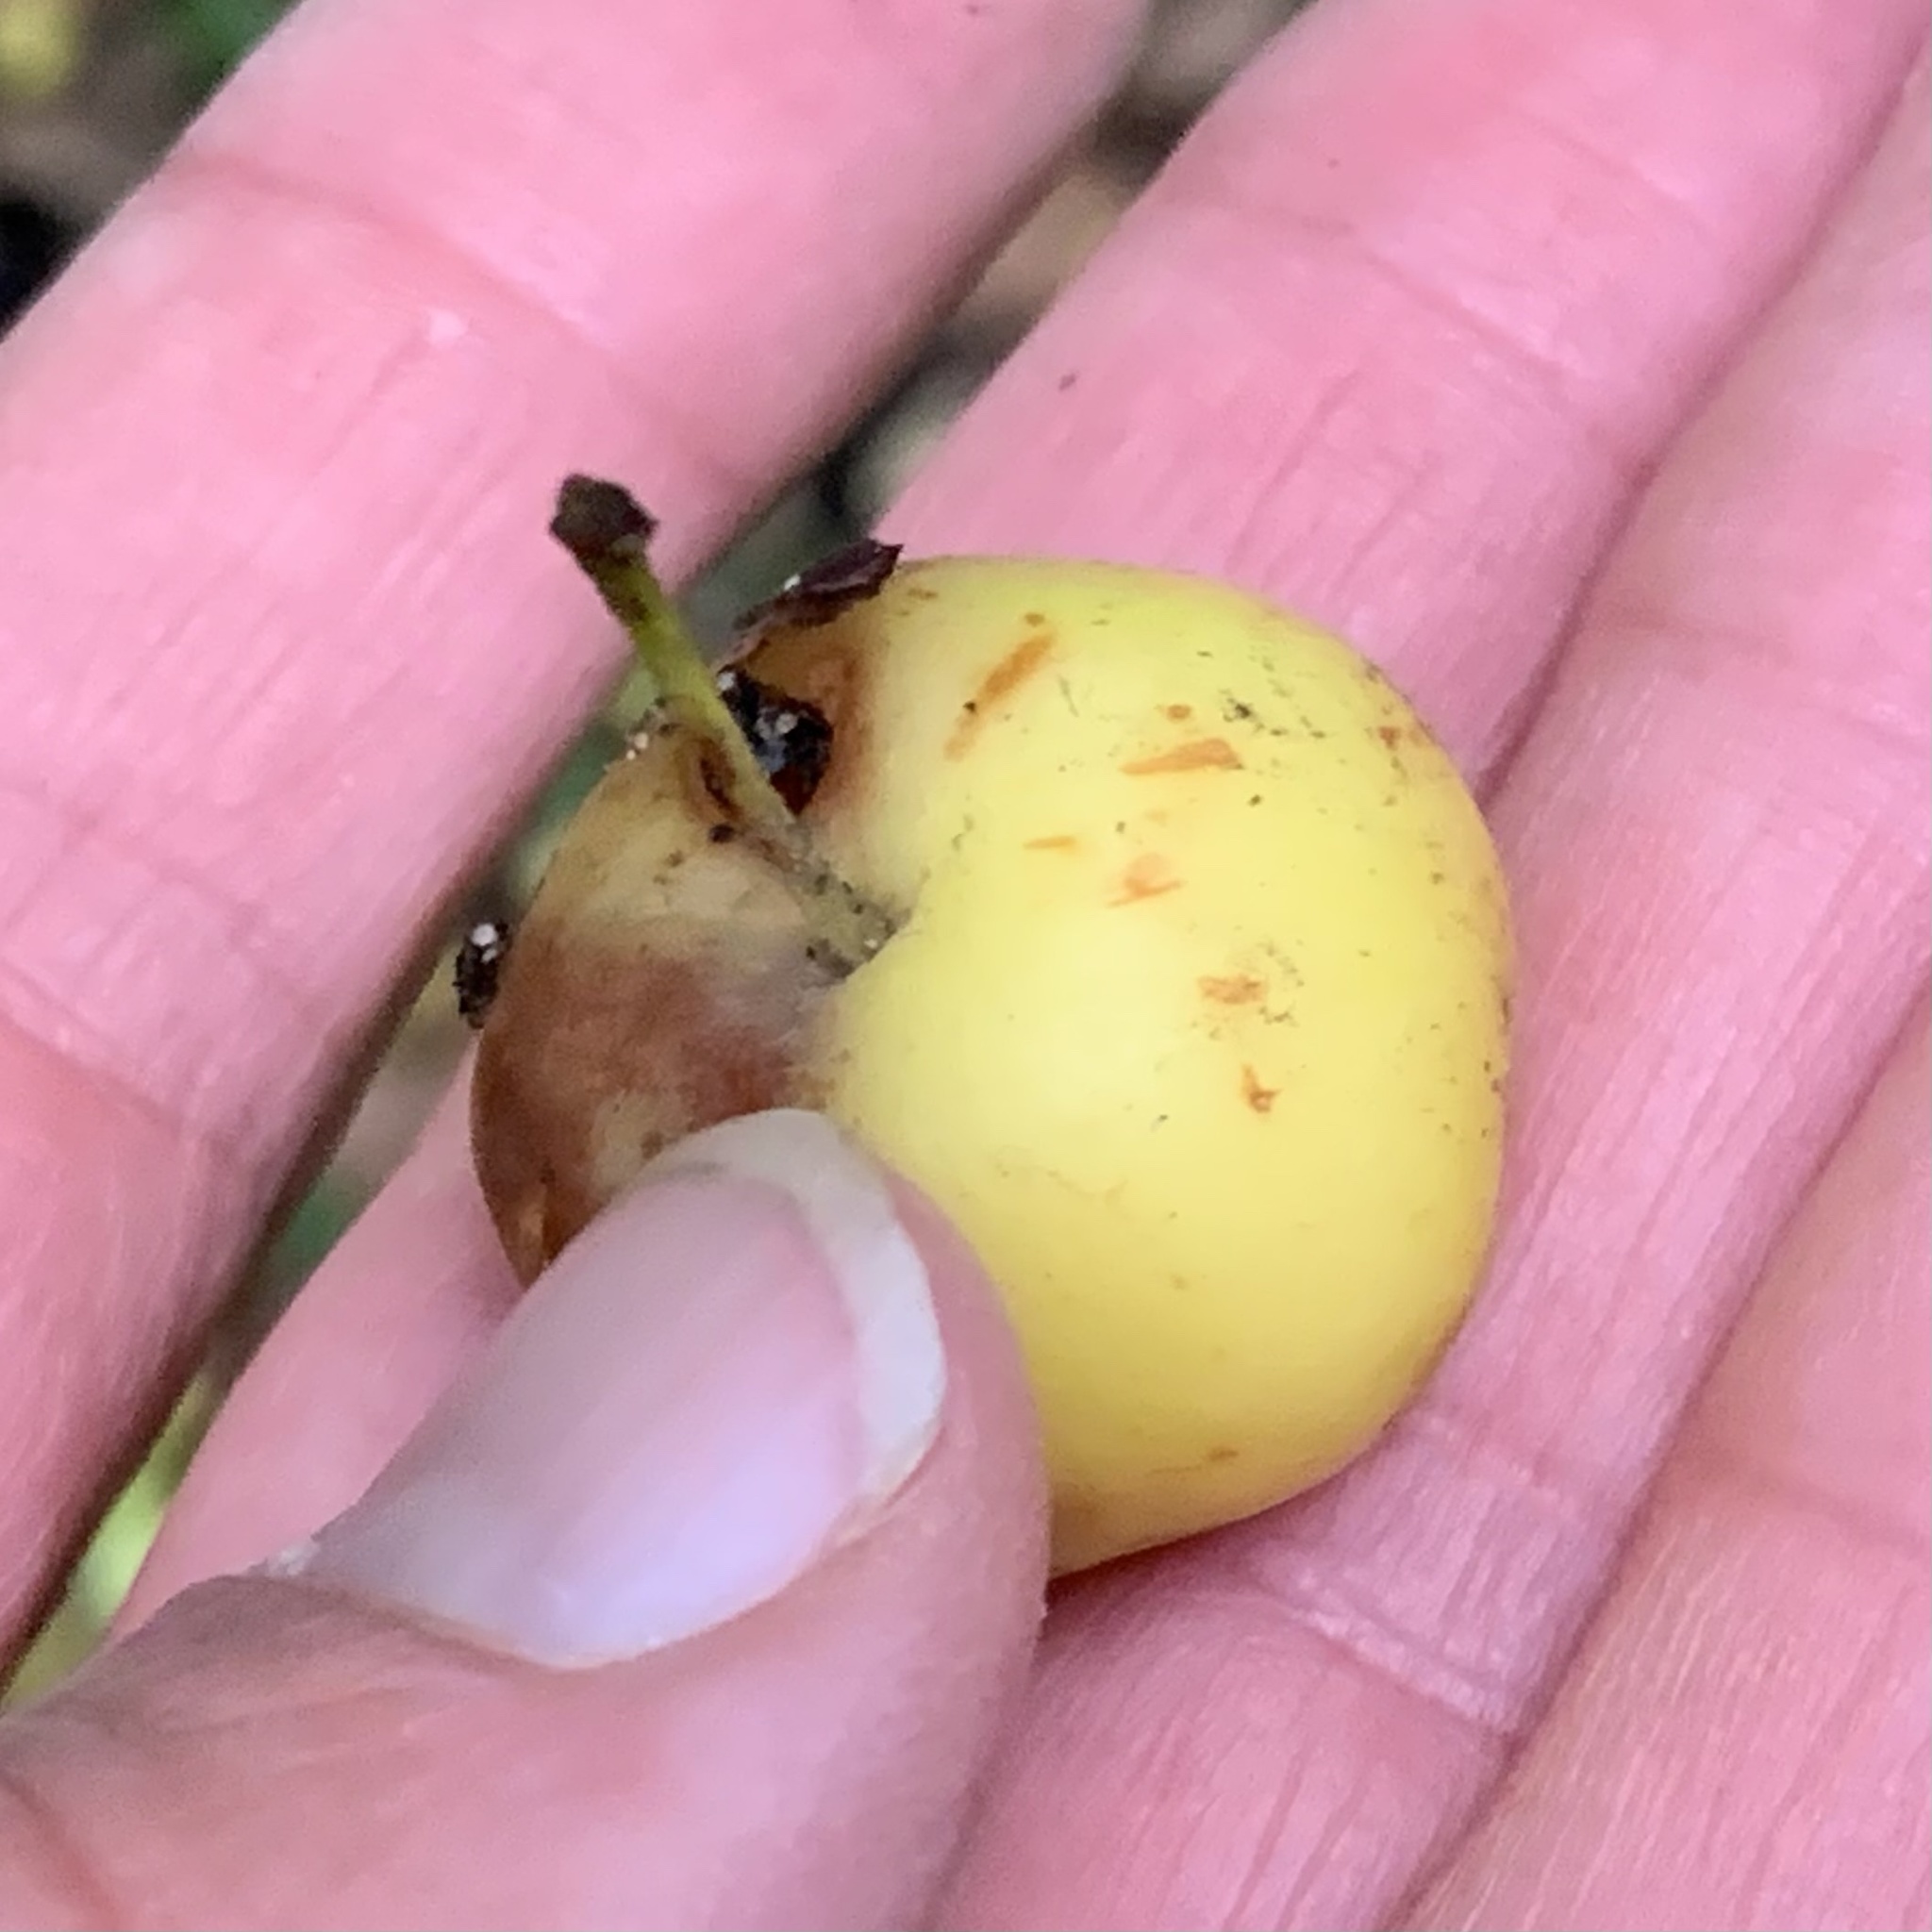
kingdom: Plantae
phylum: Tracheophyta
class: Magnoliopsida
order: Rosales
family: Rosaceae
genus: Malus
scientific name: Malus sylvestris
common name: Crab apple
